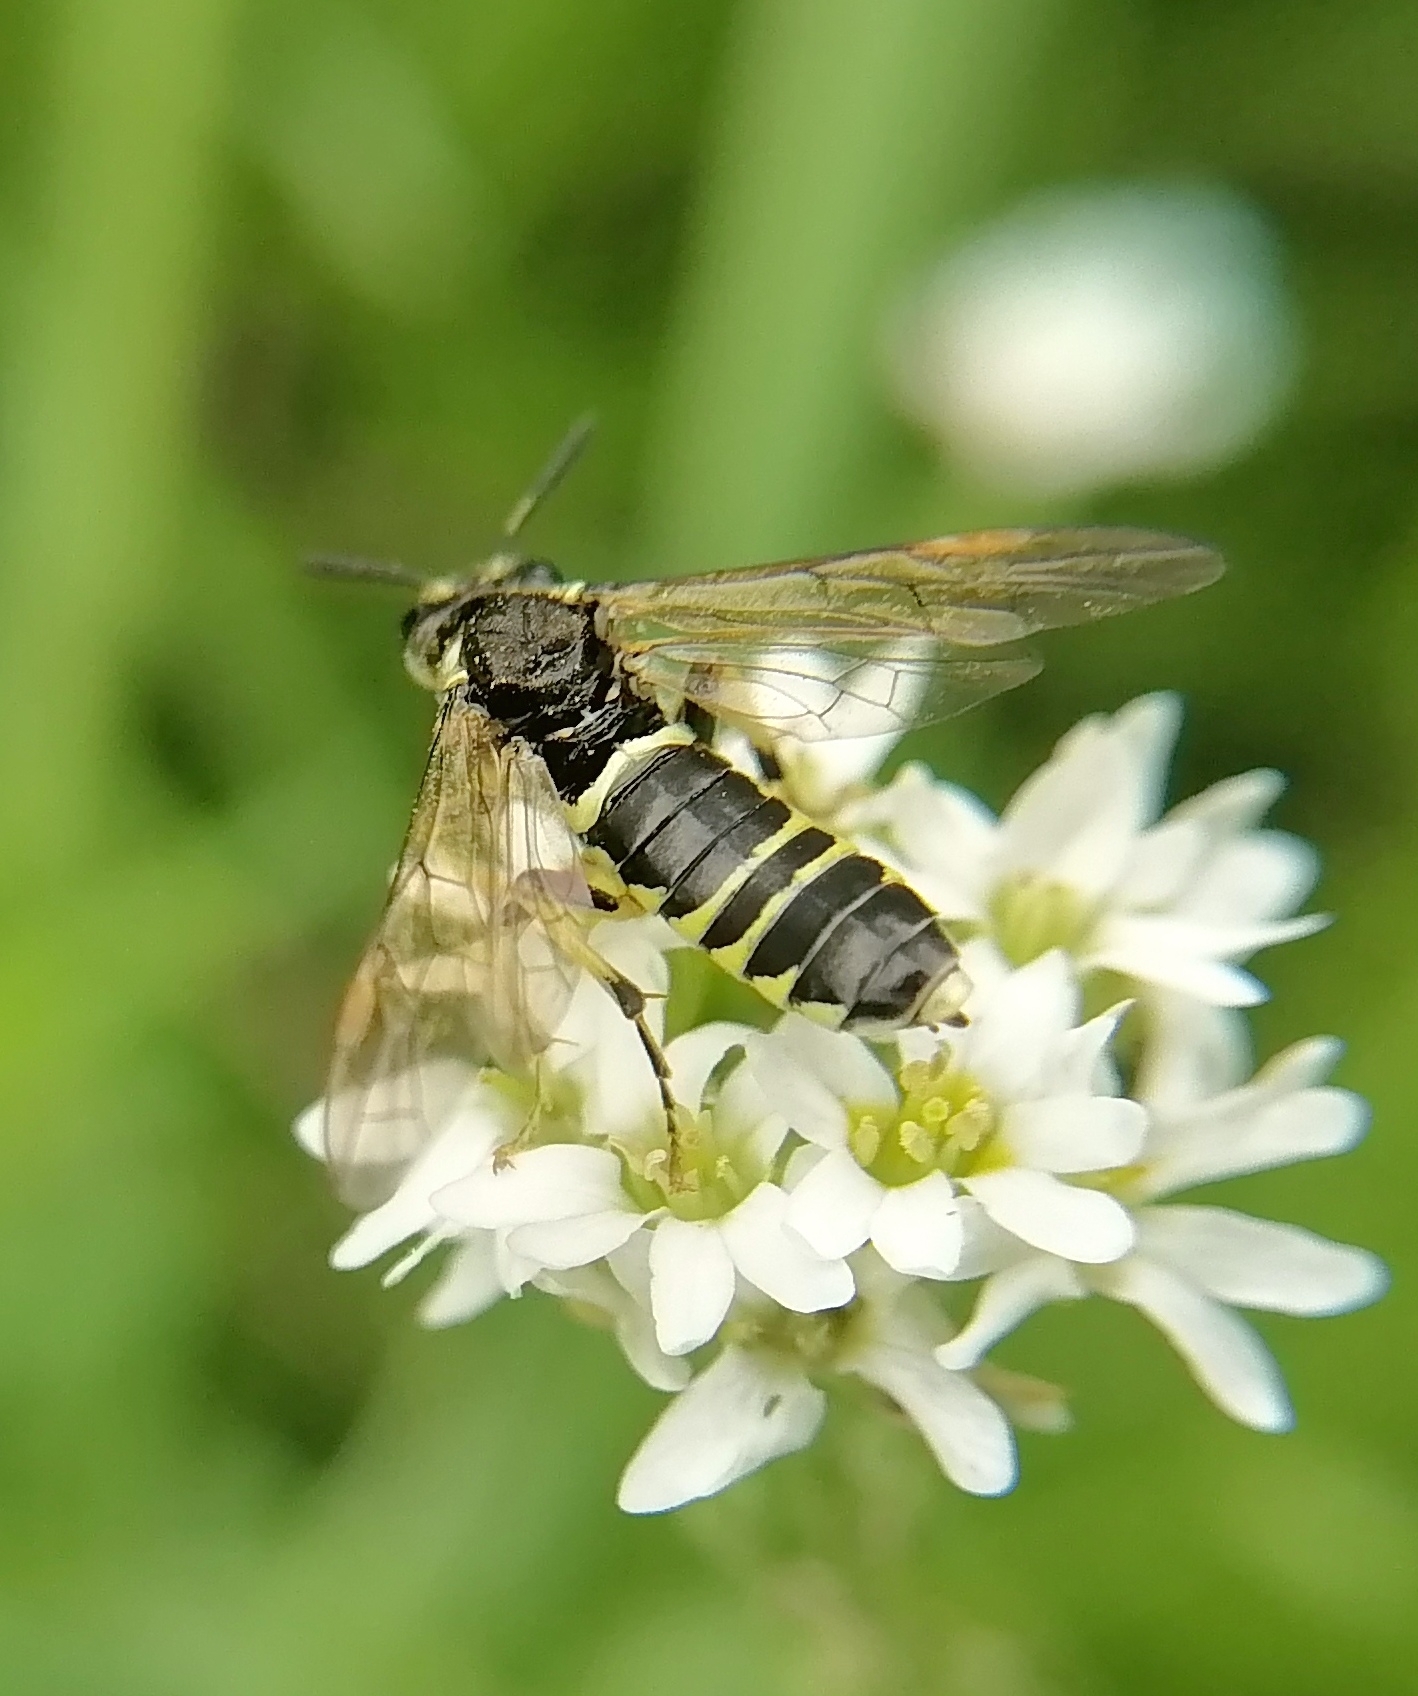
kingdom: Animalia
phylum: Arthropoda
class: Insecta
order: Hymenoptera
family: Tenthredinidae
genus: Tenthredo
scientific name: Tenthredo notha
